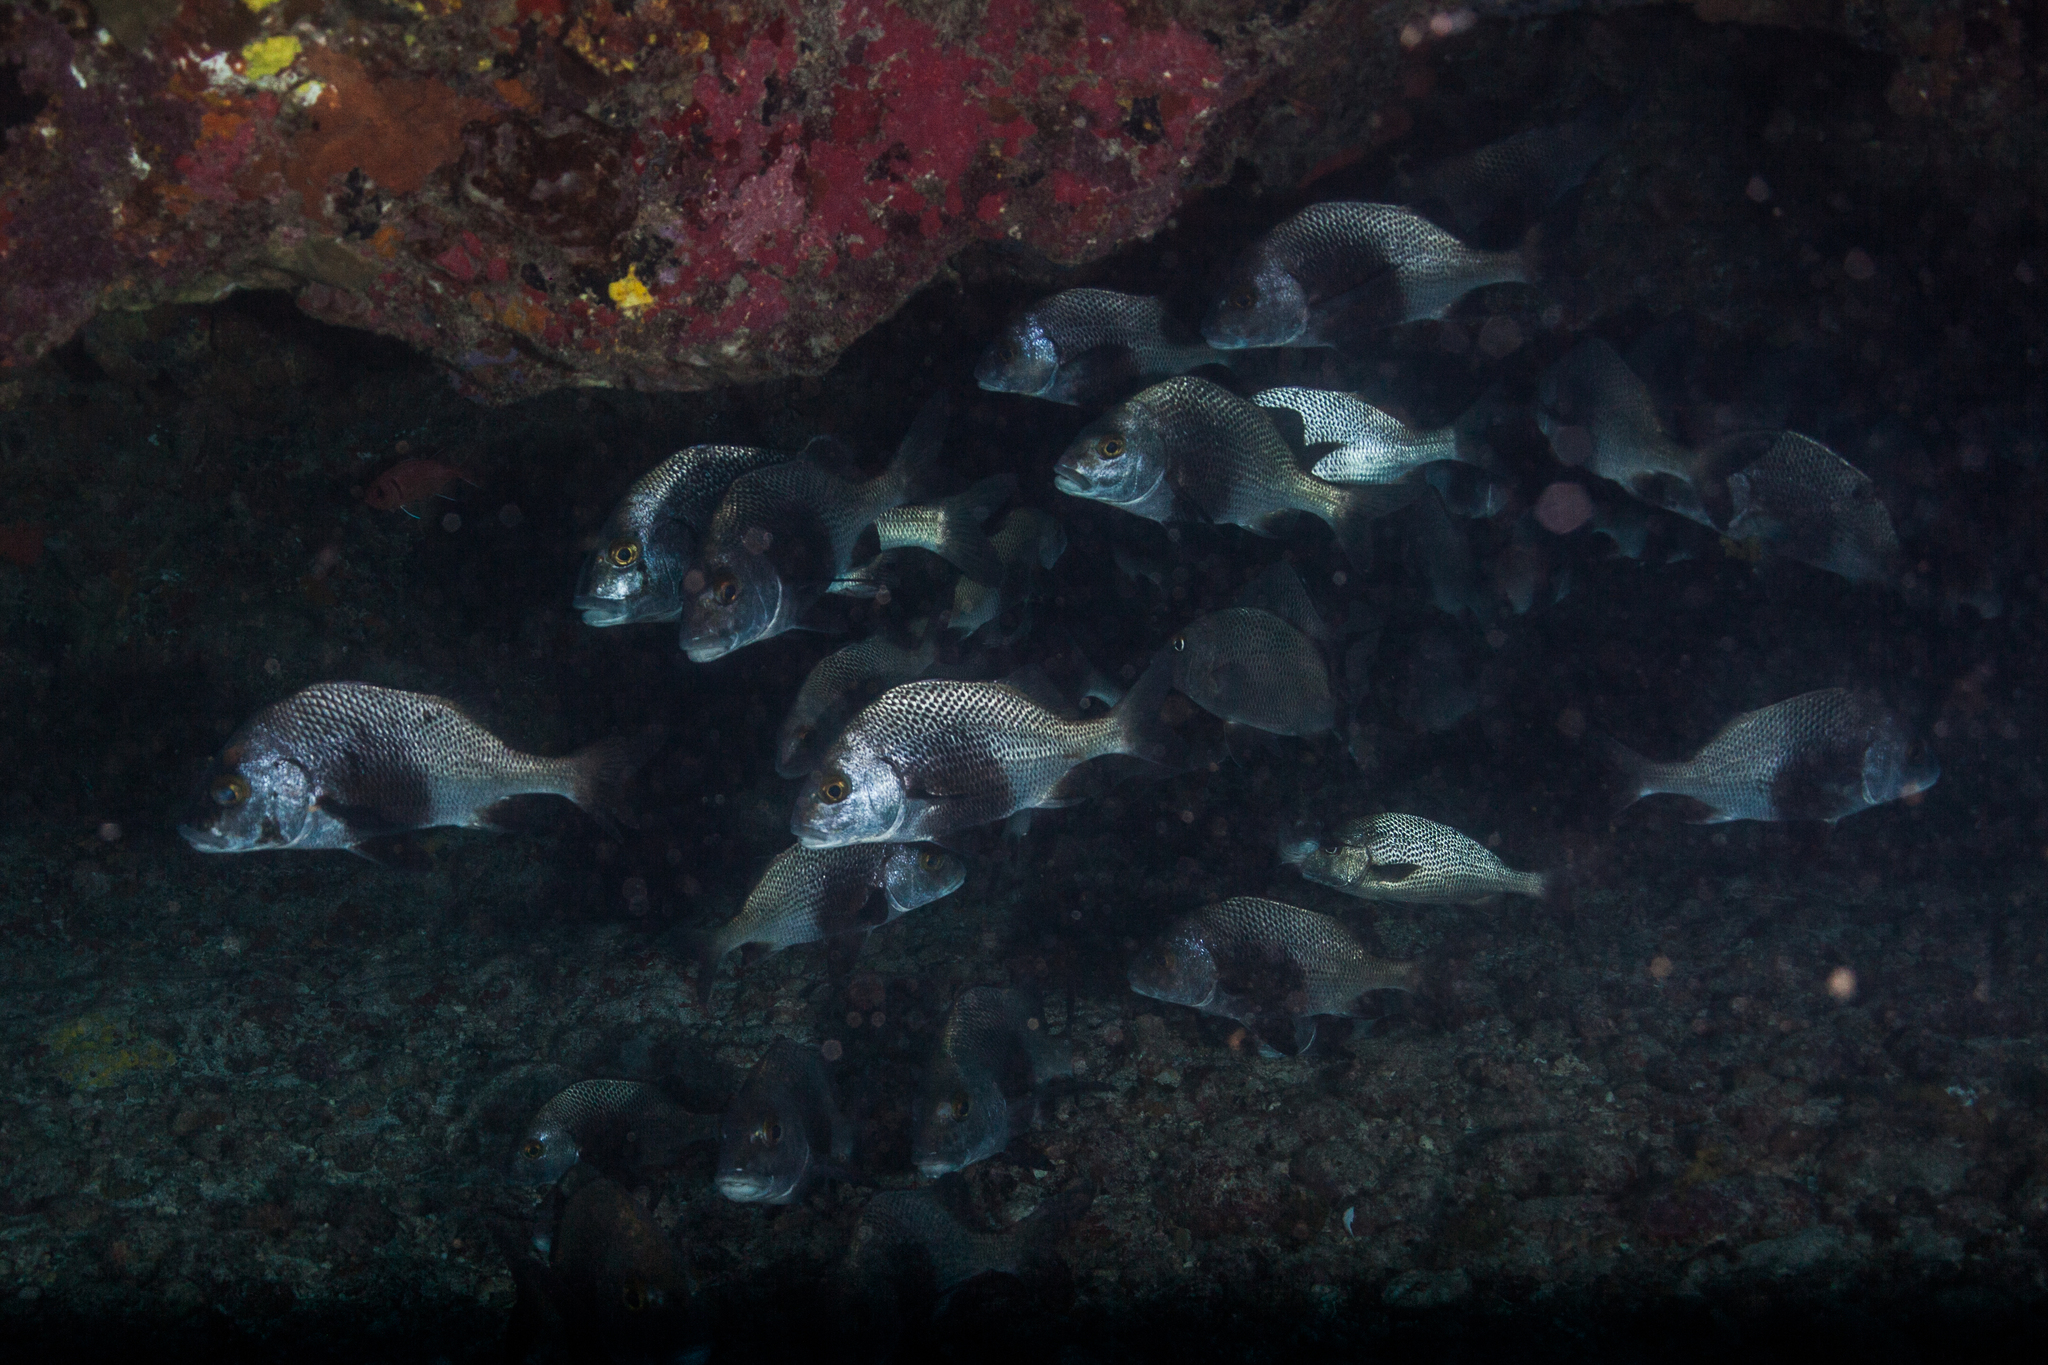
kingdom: Animalia
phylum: Chordata
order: Perciformes
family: Haemulidae
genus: Anisotremus
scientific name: Anisotremus surinamensis
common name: Black margate
